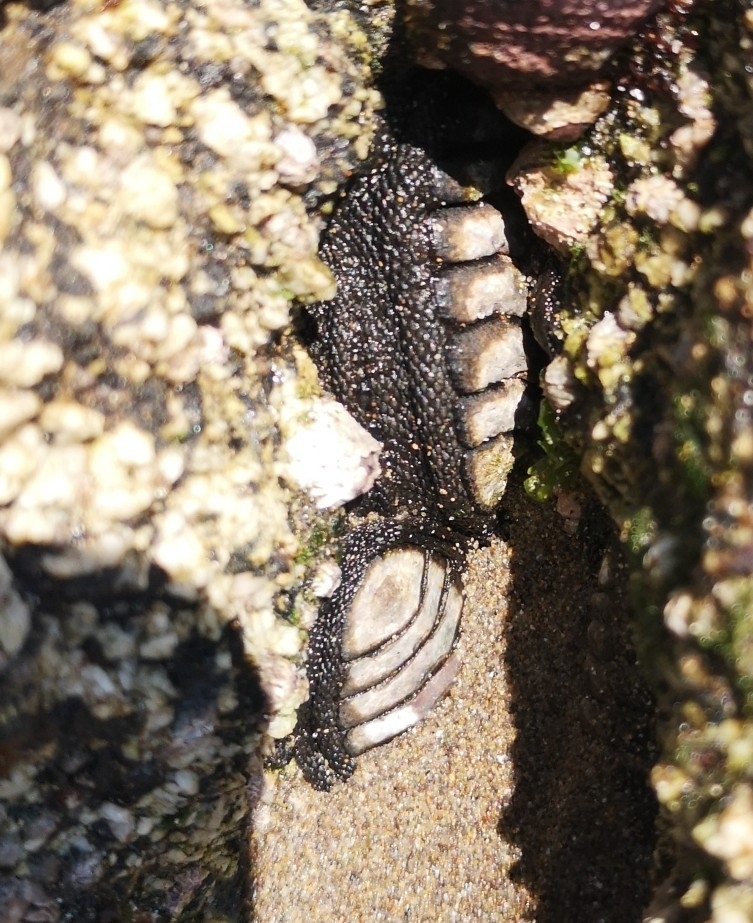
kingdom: Animalia
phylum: Mollusca
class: Polyplacophora
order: Chitonida
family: Chitonidae
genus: Chiton
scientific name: Chiton granosus
